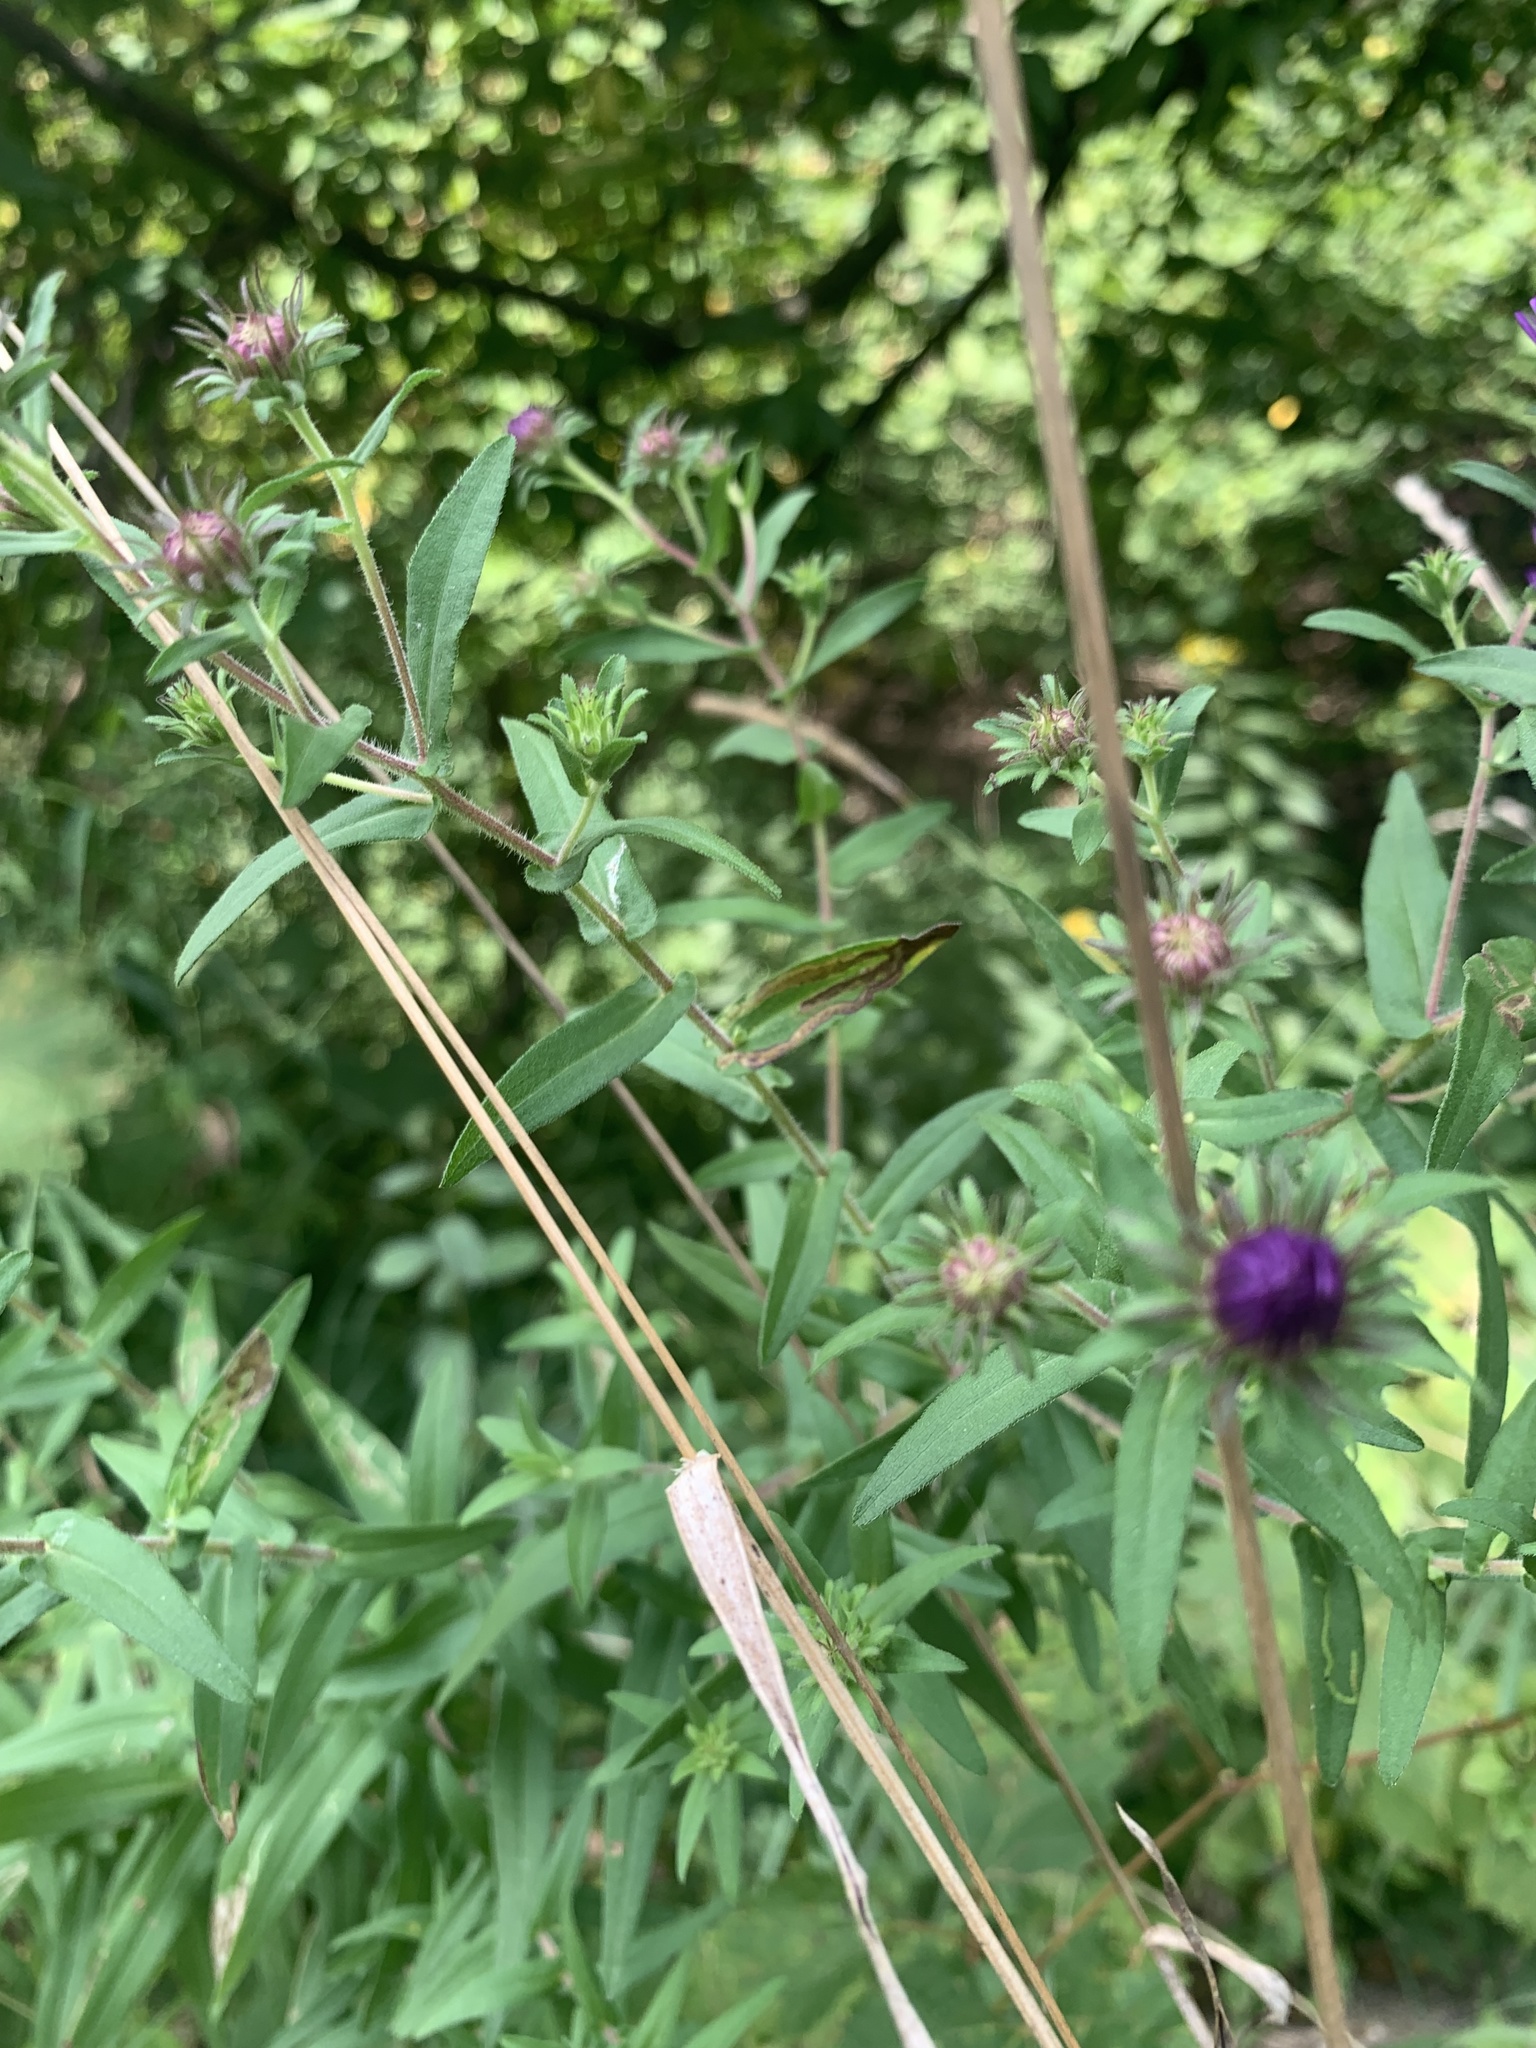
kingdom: Plantae
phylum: Tracheophyta
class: Magnoliopsida
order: Asterales
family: Asteraceae
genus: Symphyotrichum
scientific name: Symphyotrichum novae-angliae
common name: Michaelmas daisy
